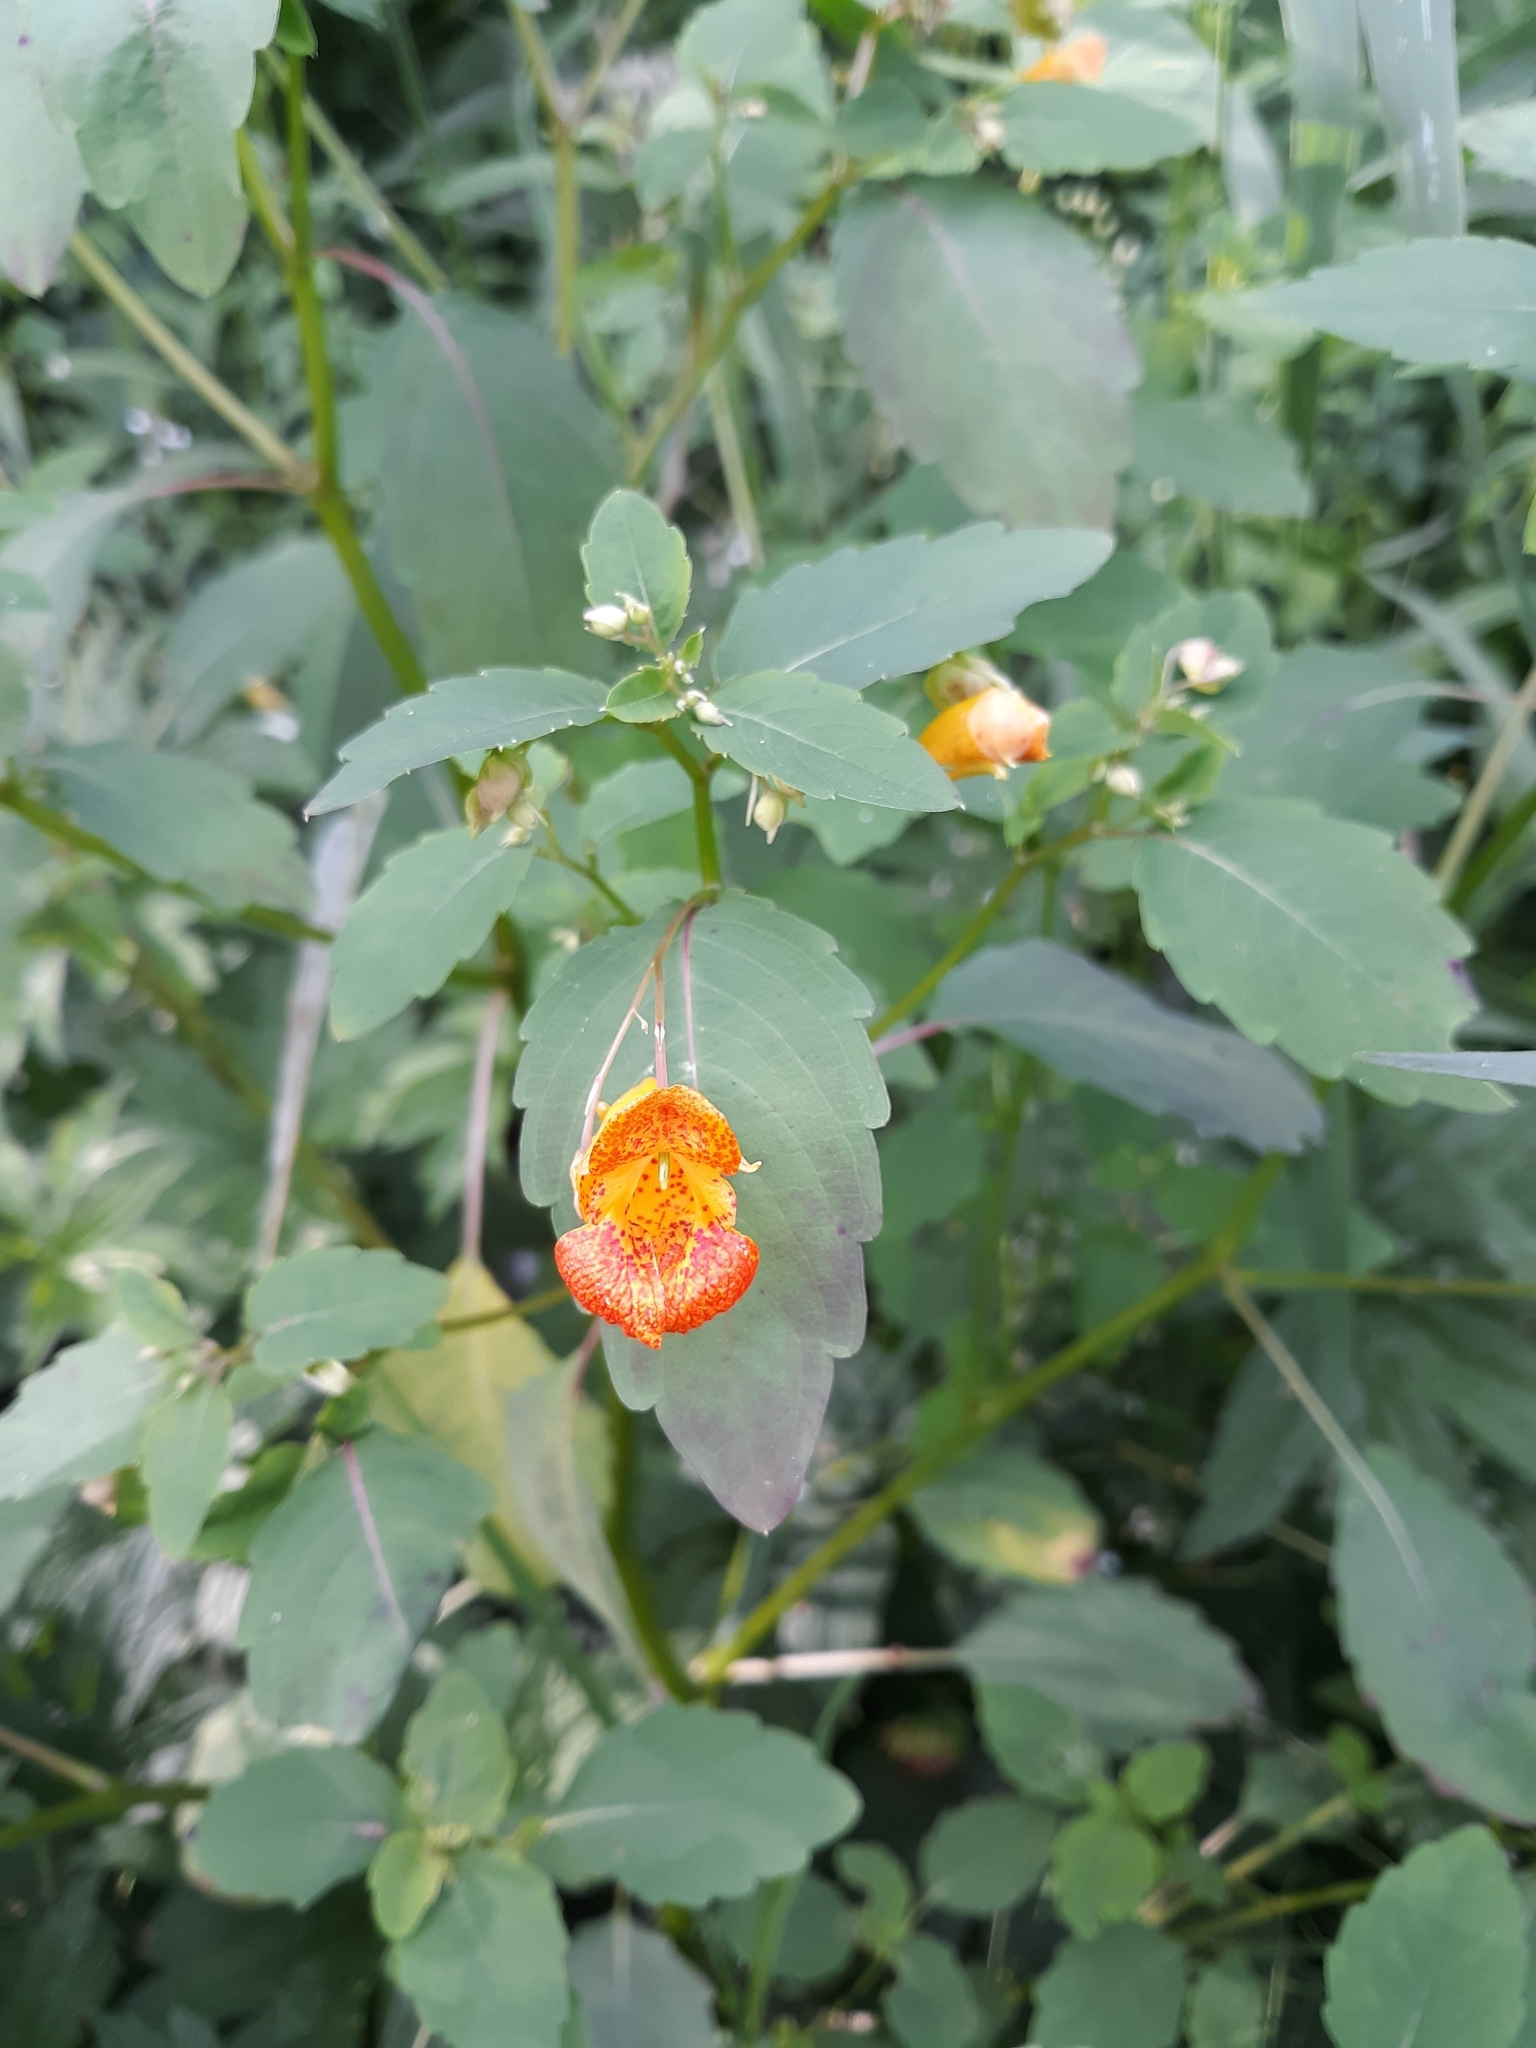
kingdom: Plantae
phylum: Tracheophyta
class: Magnoliopsida
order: Ericales
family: Balsaminaceae
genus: Impatiens
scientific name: Impatiens capensis
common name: Orange balsam
